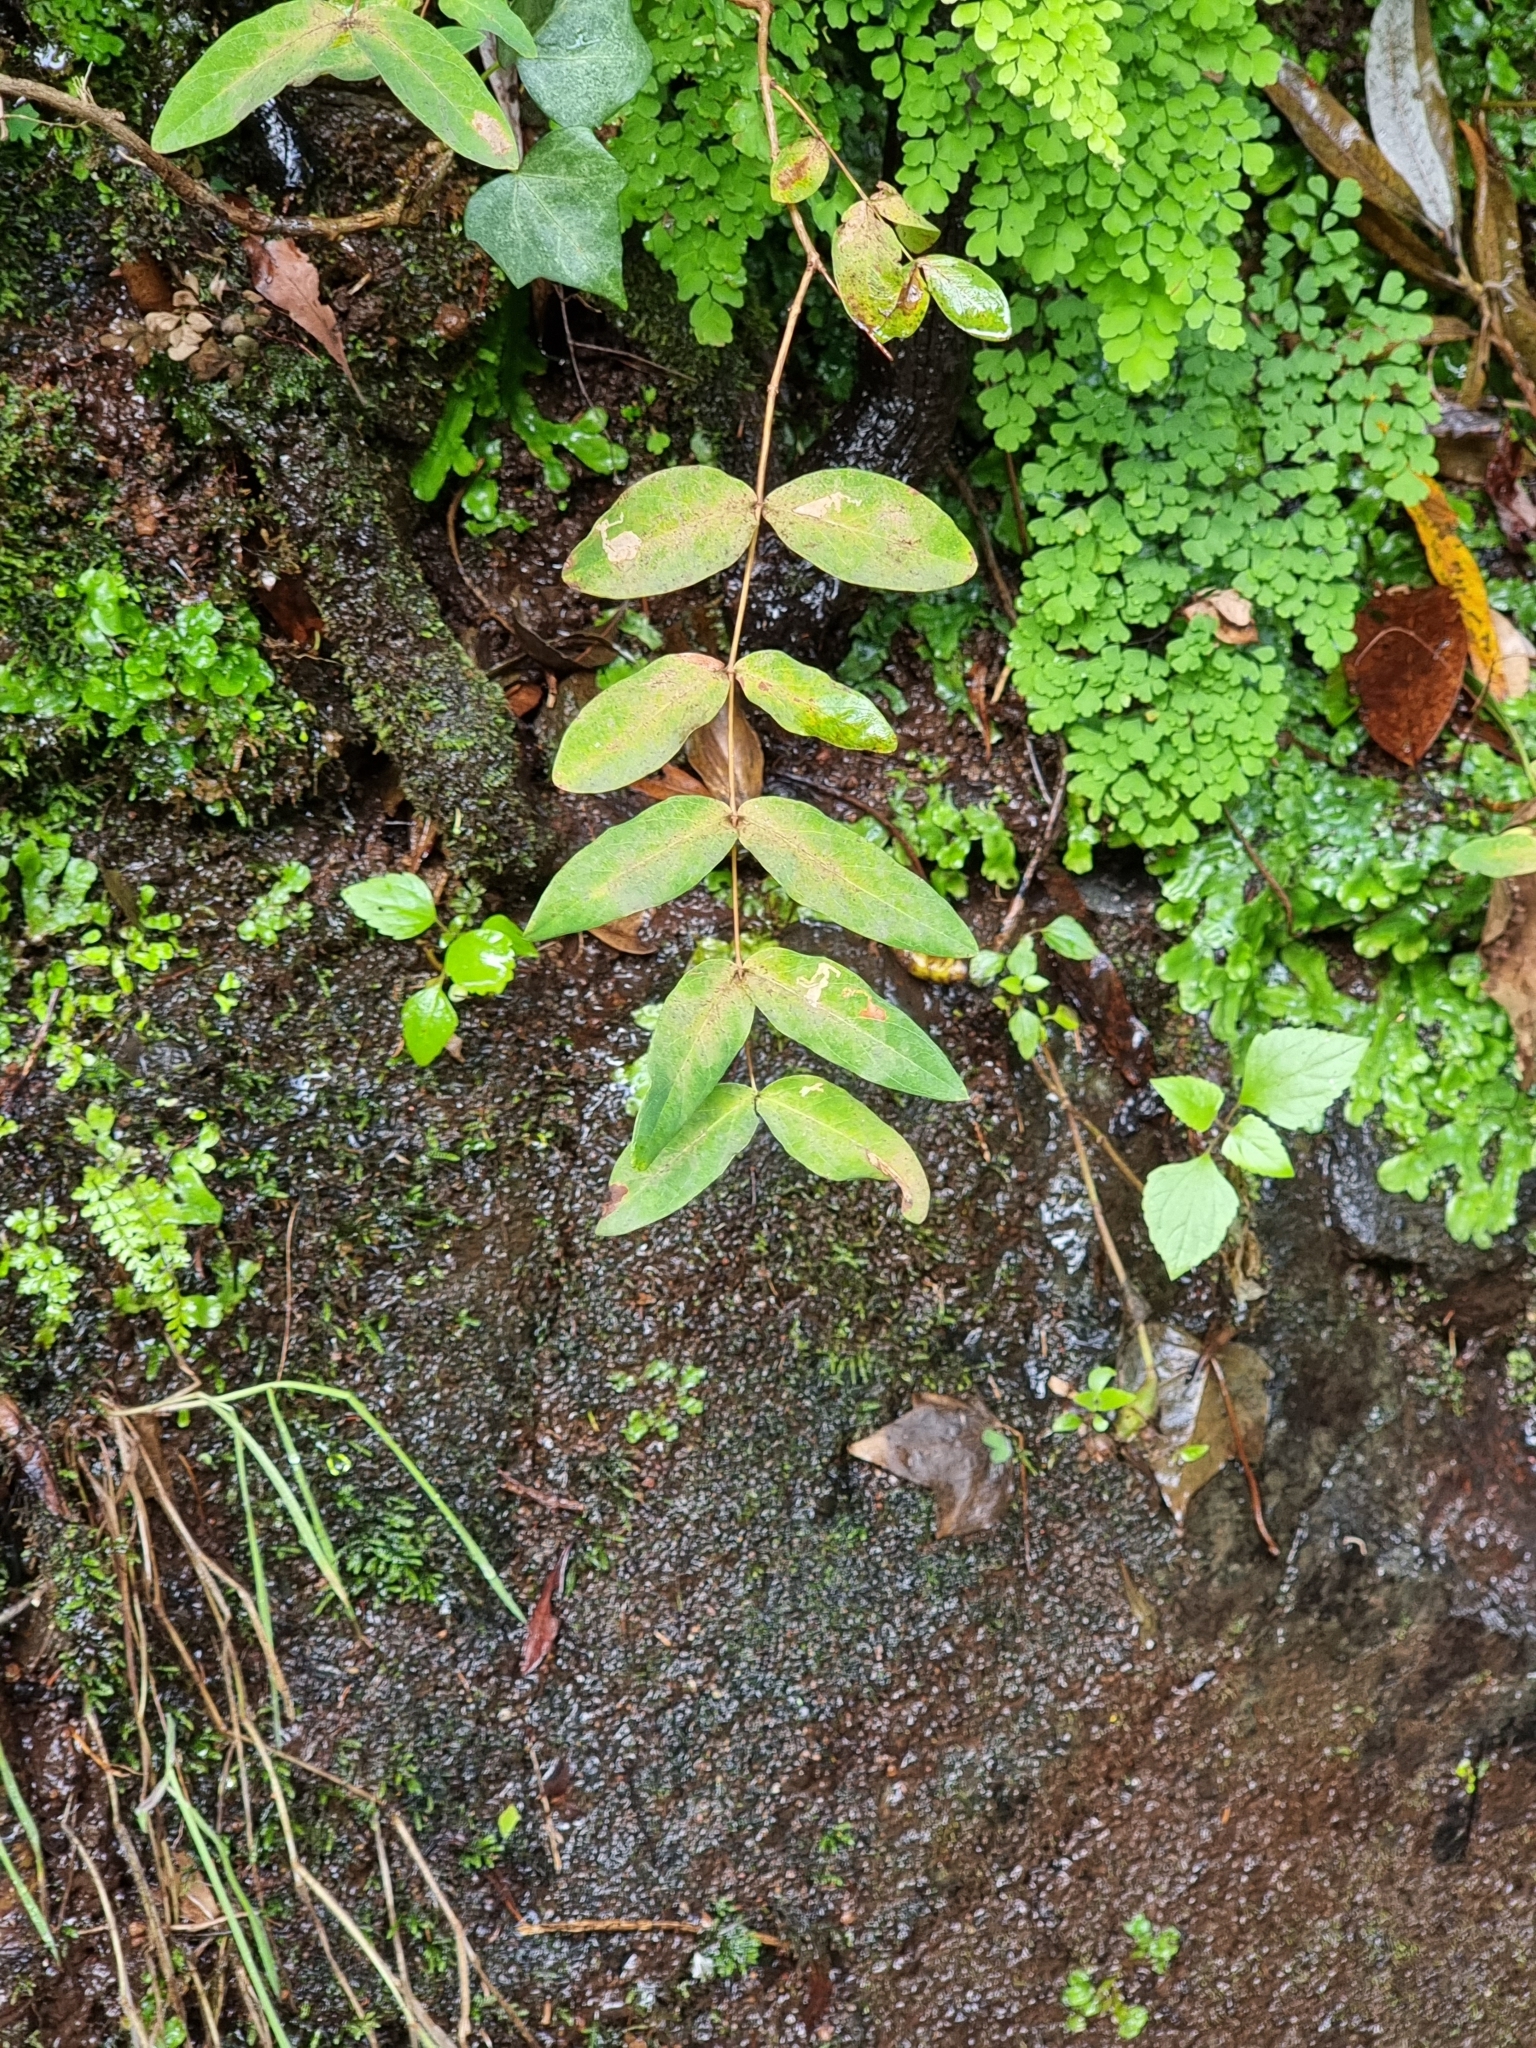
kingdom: Plantae
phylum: Tracheophyta
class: Magnoliopsida
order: Malpighiales
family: Hypericaceae
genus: Hypericum
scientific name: Hypericum grandifolium
